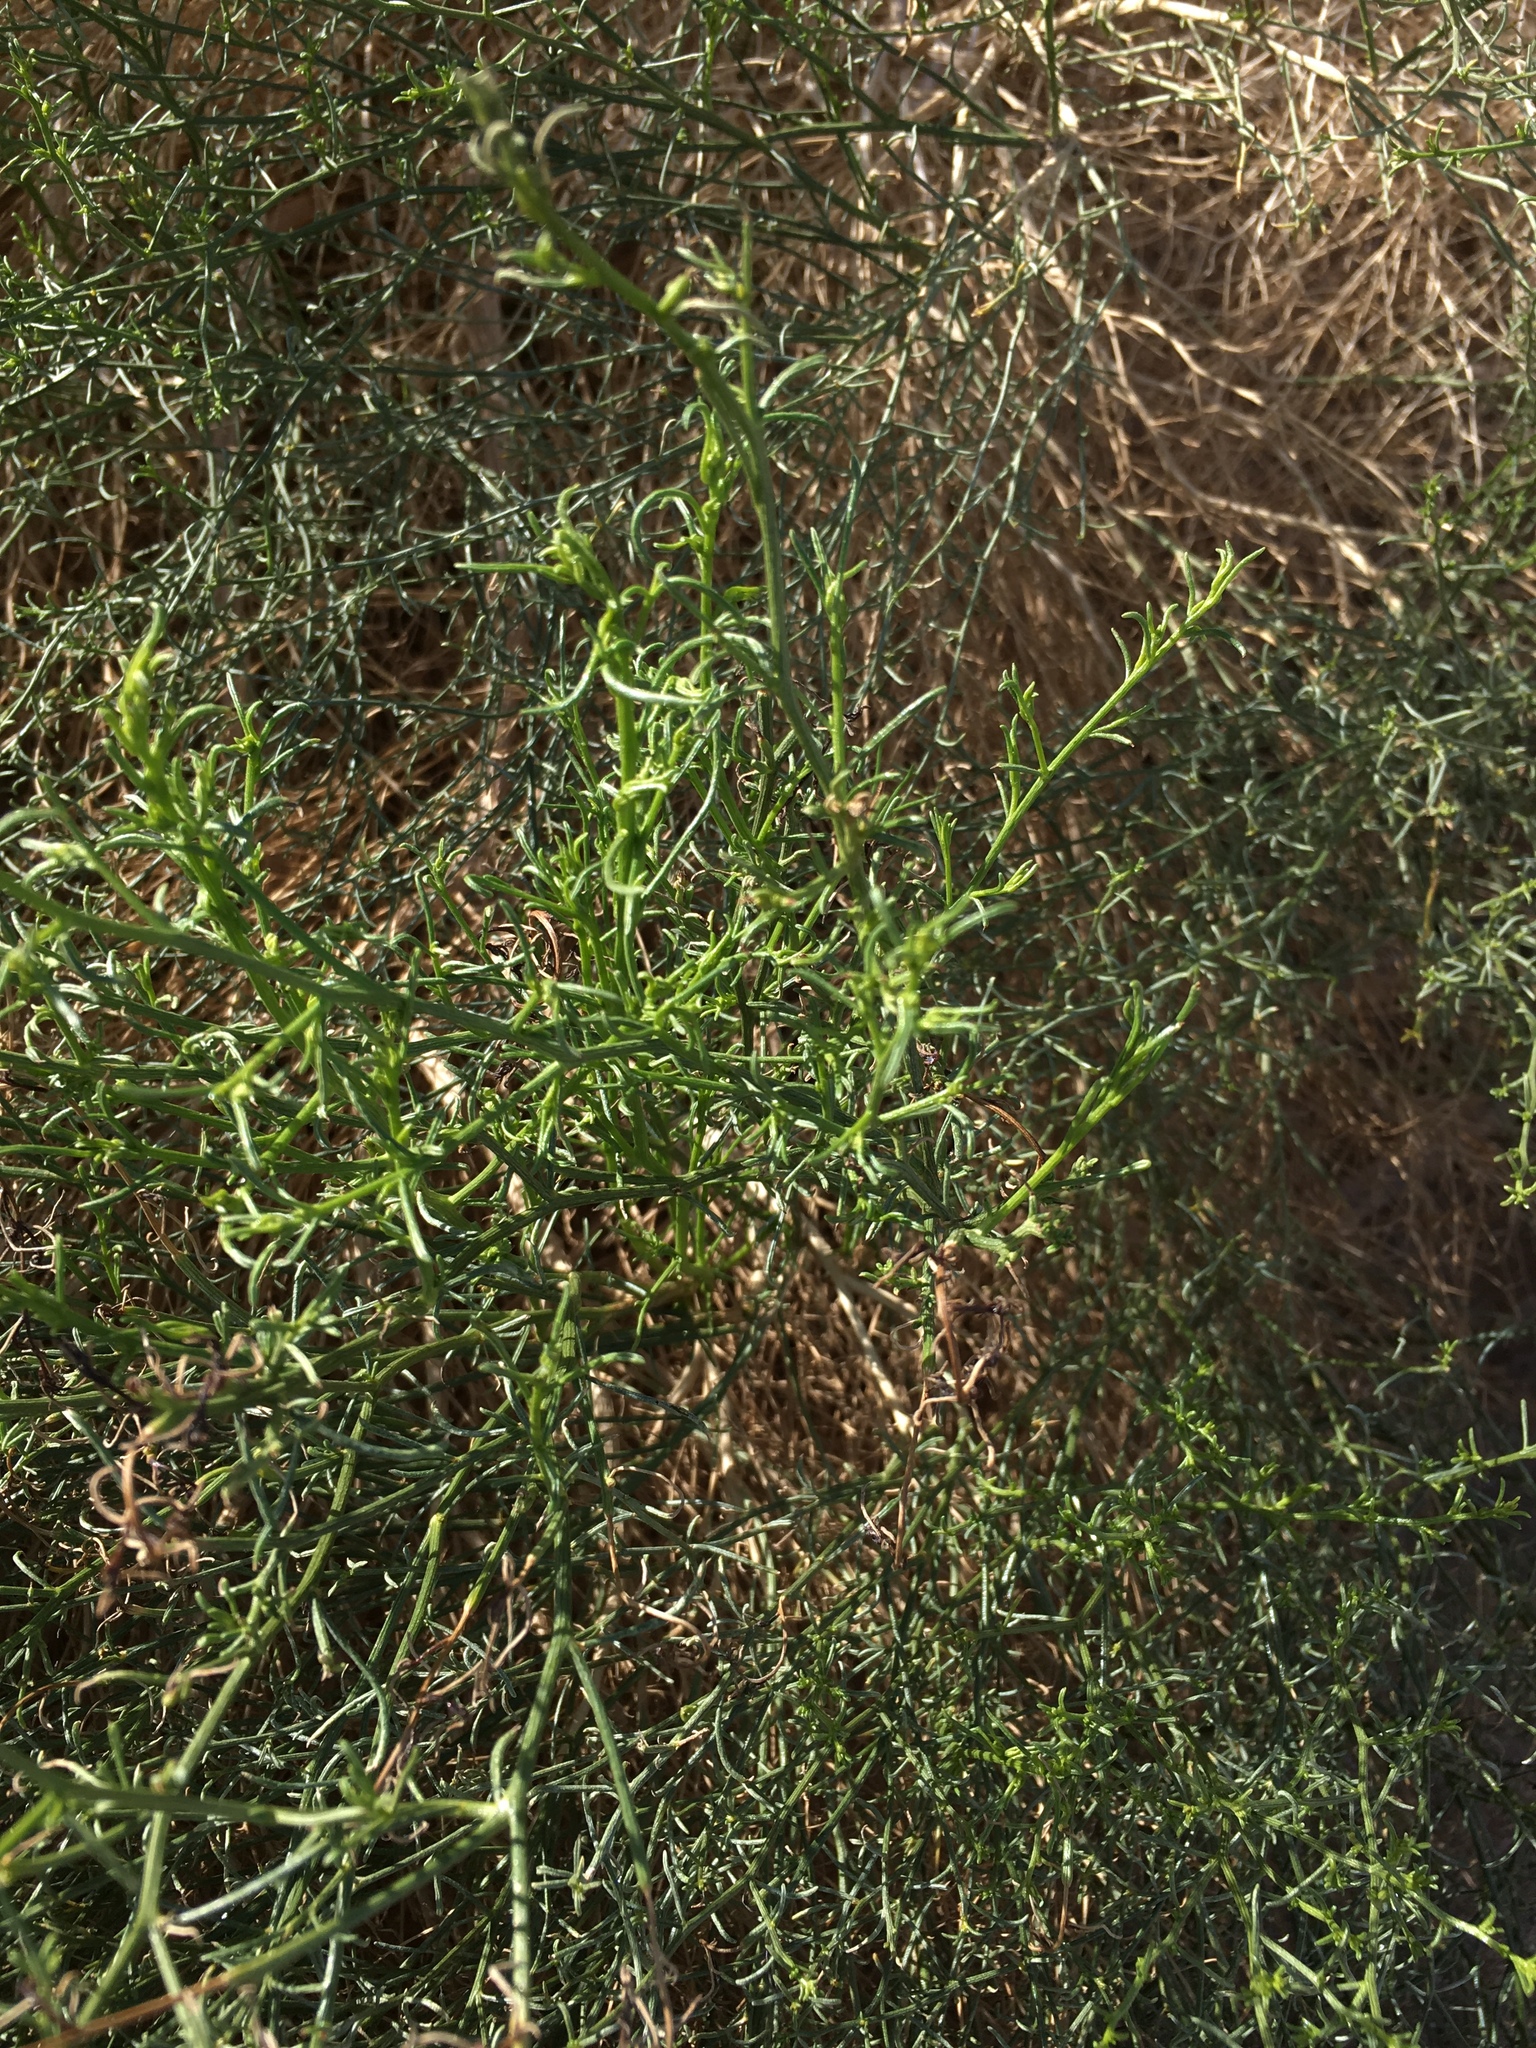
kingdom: Plantae
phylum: Tracheophyta
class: Magnoliopsida
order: Asterales
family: Asteraceae
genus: Ambrosia
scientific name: Ambrosia salsola
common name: Burrobrush
